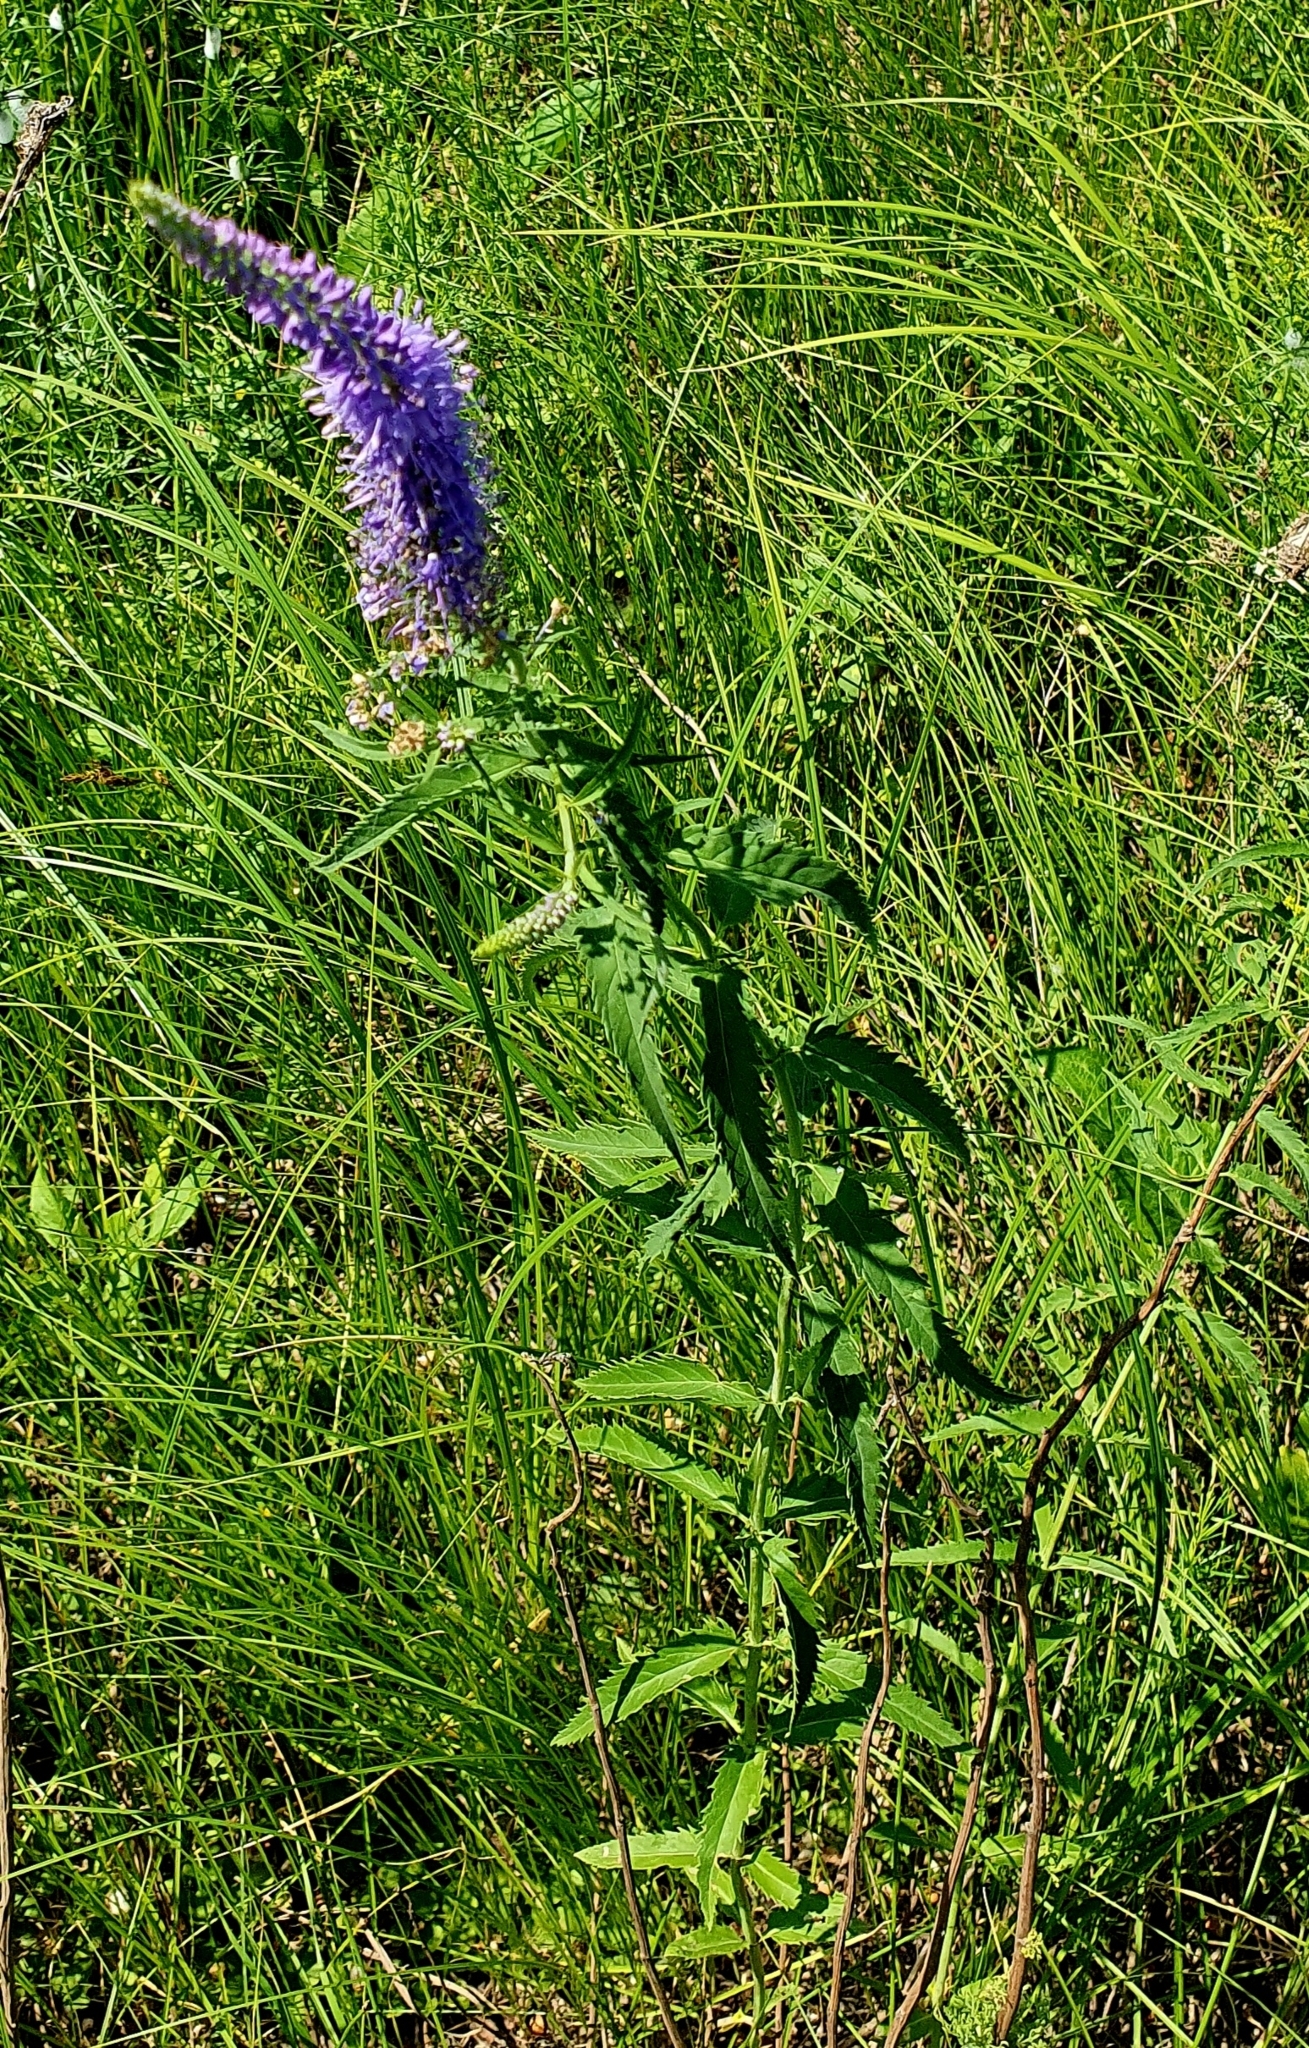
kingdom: Plantae
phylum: Tracheophyta
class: Magnoliopsida
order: Lamiales
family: Plantaginaceae
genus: Veronica
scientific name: Veronica longifolia
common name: Garden speedwell
